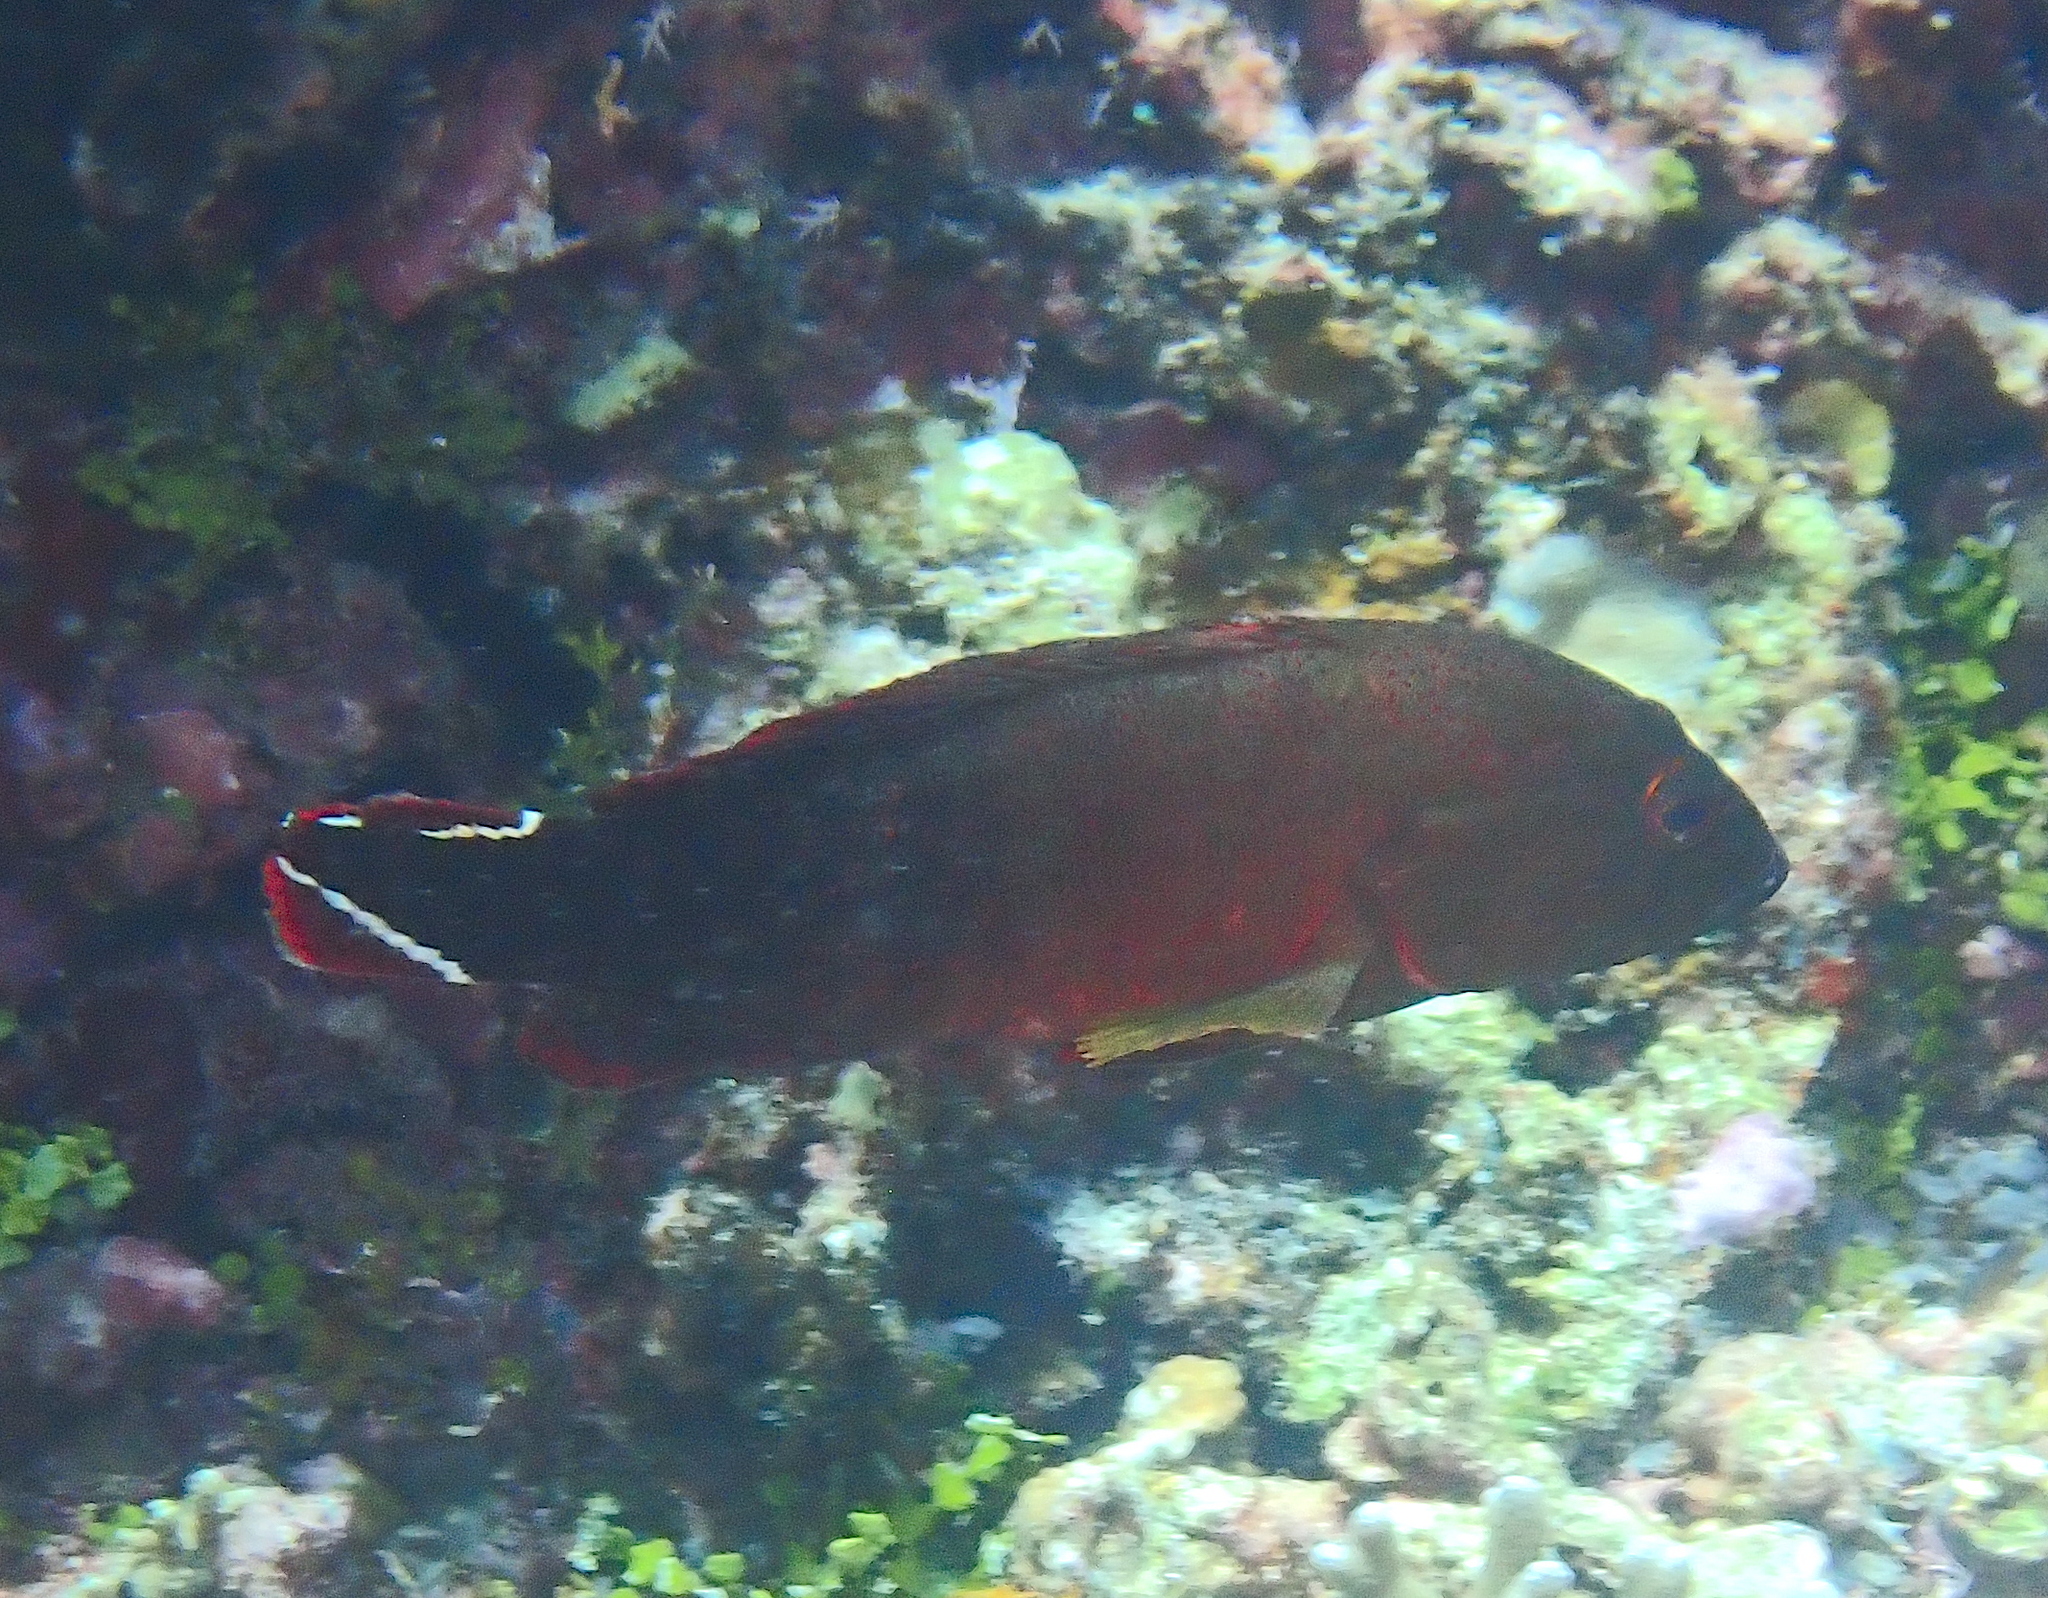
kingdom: Animalia
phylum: Chordata
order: Perciformes
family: Serranidae
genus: Cephalopholis
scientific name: Cephalopholis urodeta
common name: Darkfin hind
